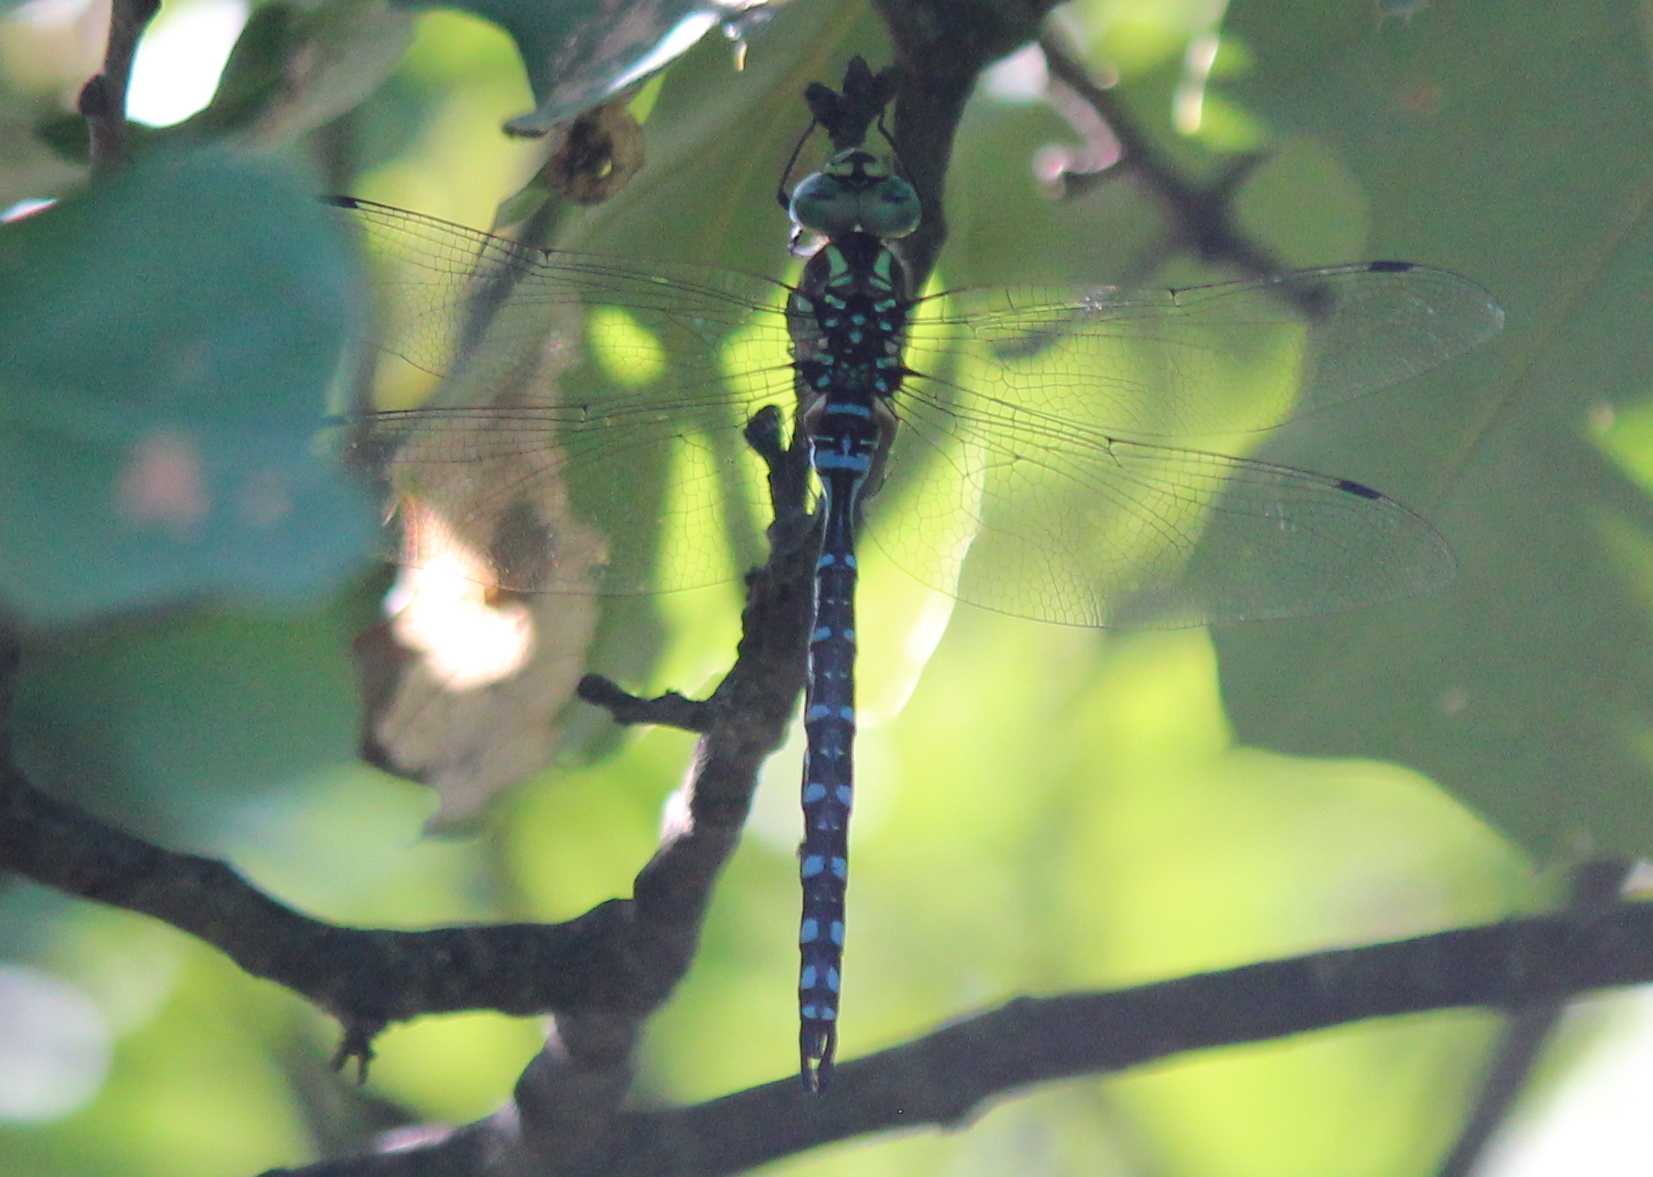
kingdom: Animalia
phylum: Arthropoda
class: Insecta
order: Odonata
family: Aeshnidae
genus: Aeshna
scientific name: Aeshna constricta
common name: Lance-tipped darner
